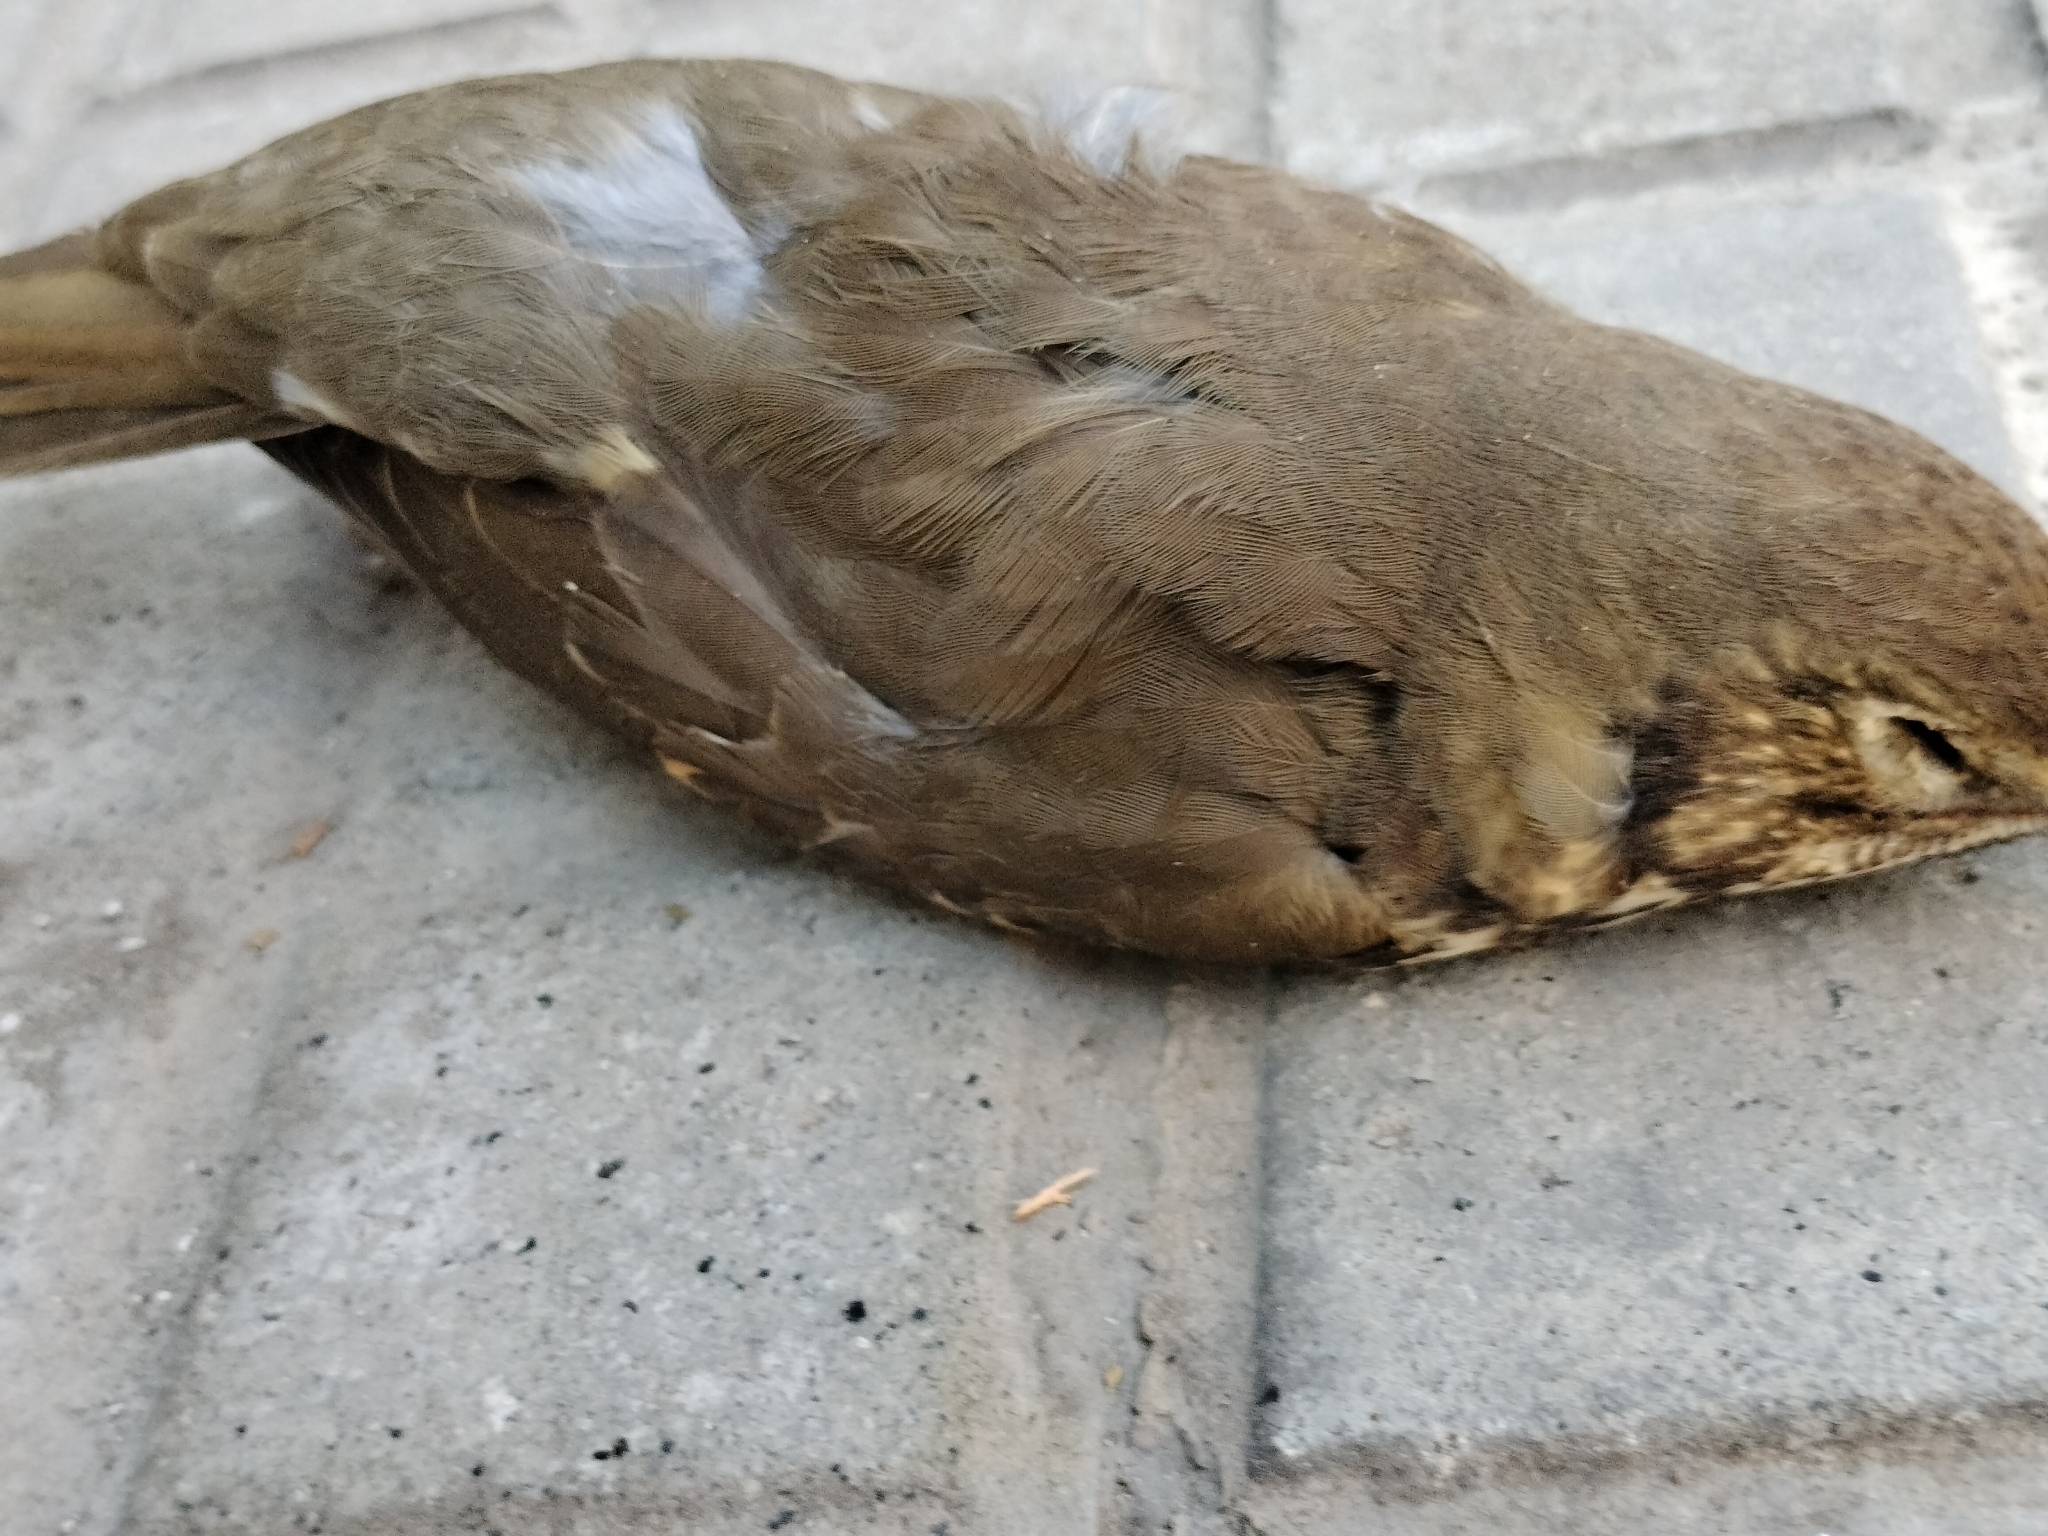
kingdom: Animalia
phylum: Chordata
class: Aves
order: Passeriformes
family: Turdidae
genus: Turdus
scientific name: Turdus philomelos
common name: Song thrush
